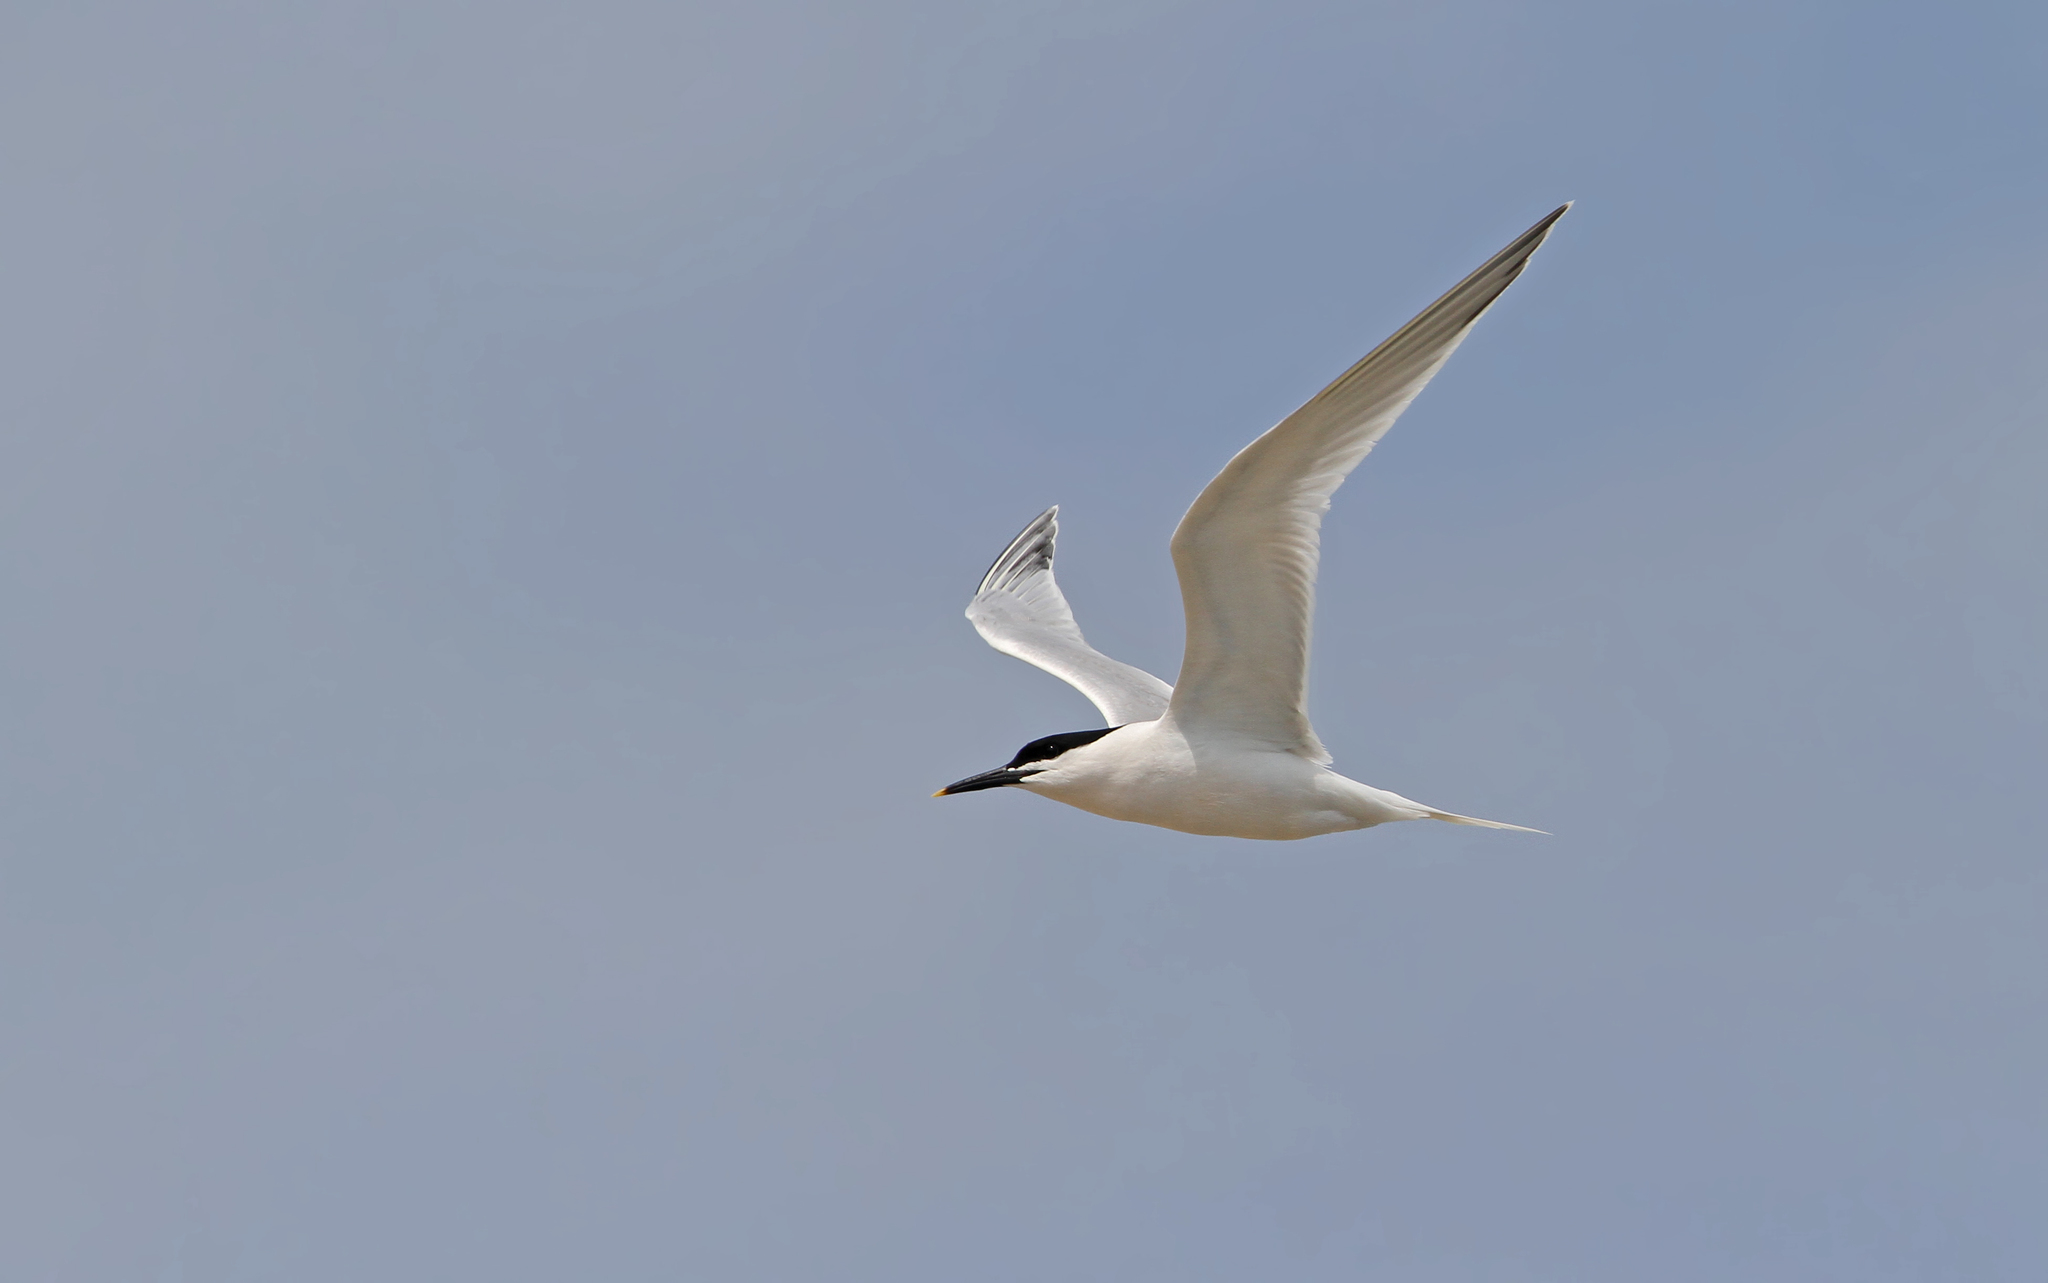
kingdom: Animalia
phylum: Chordata
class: Aves
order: Charadriiformes
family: Laridae
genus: Thalasseus
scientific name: Thalasseus sandvicensis
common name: Sandwich tern
